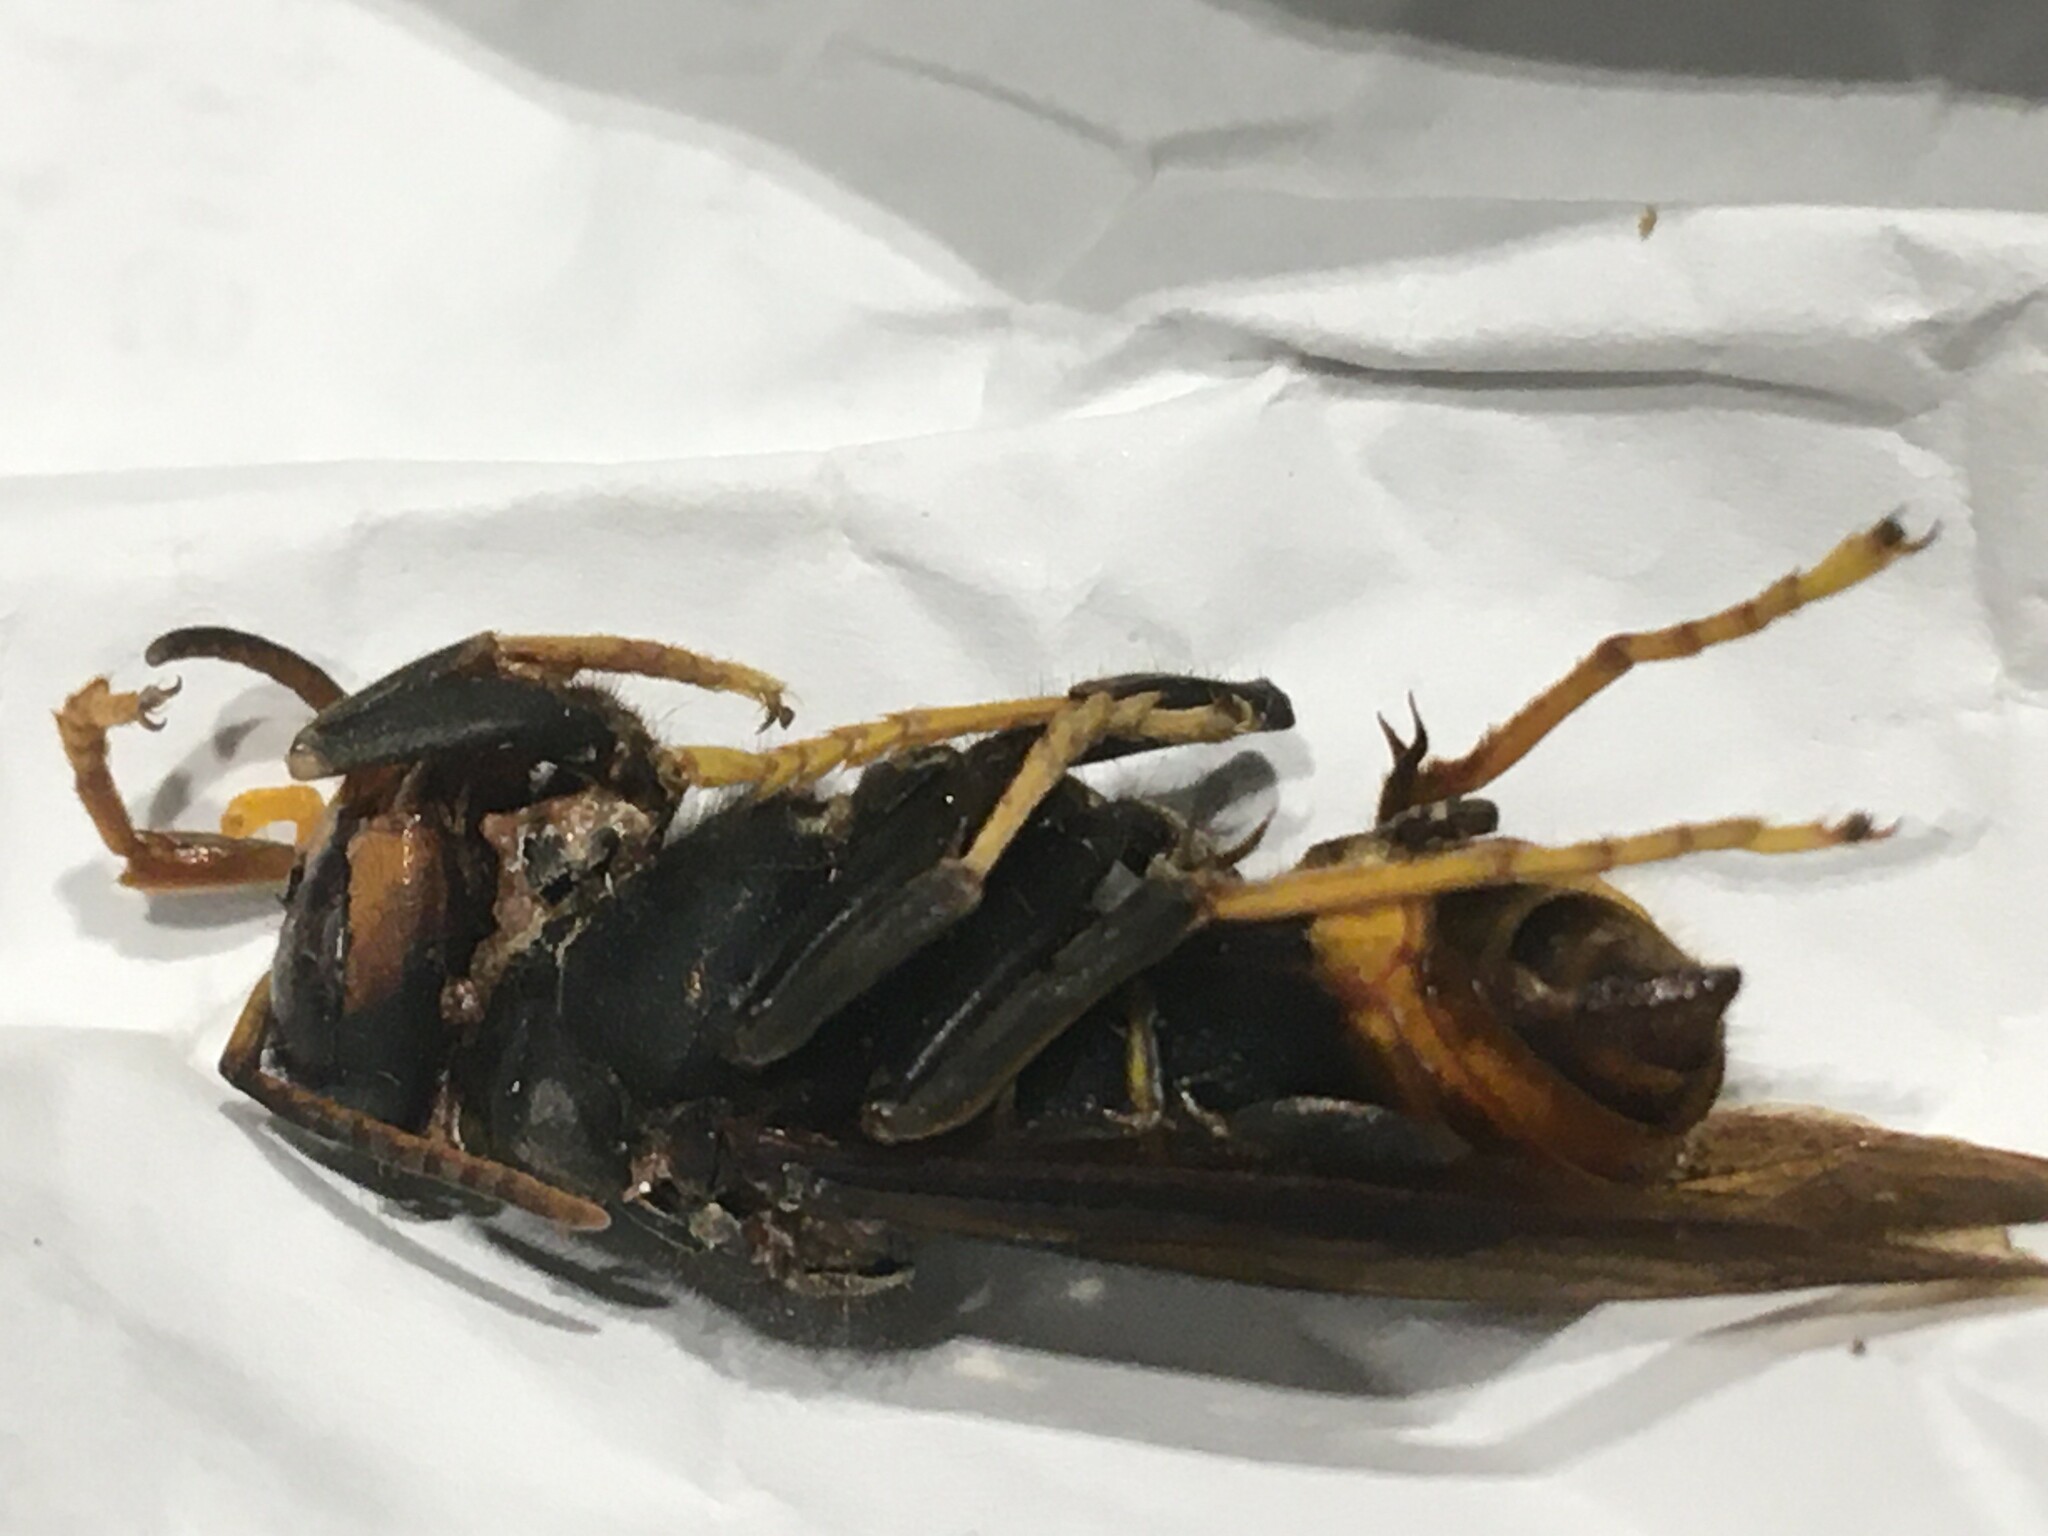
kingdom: Animalia
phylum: Arthropoda
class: Insecta
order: Hymenoptera
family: Vespidae
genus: Vespa
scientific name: Vespa velutina
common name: Asian hornet
